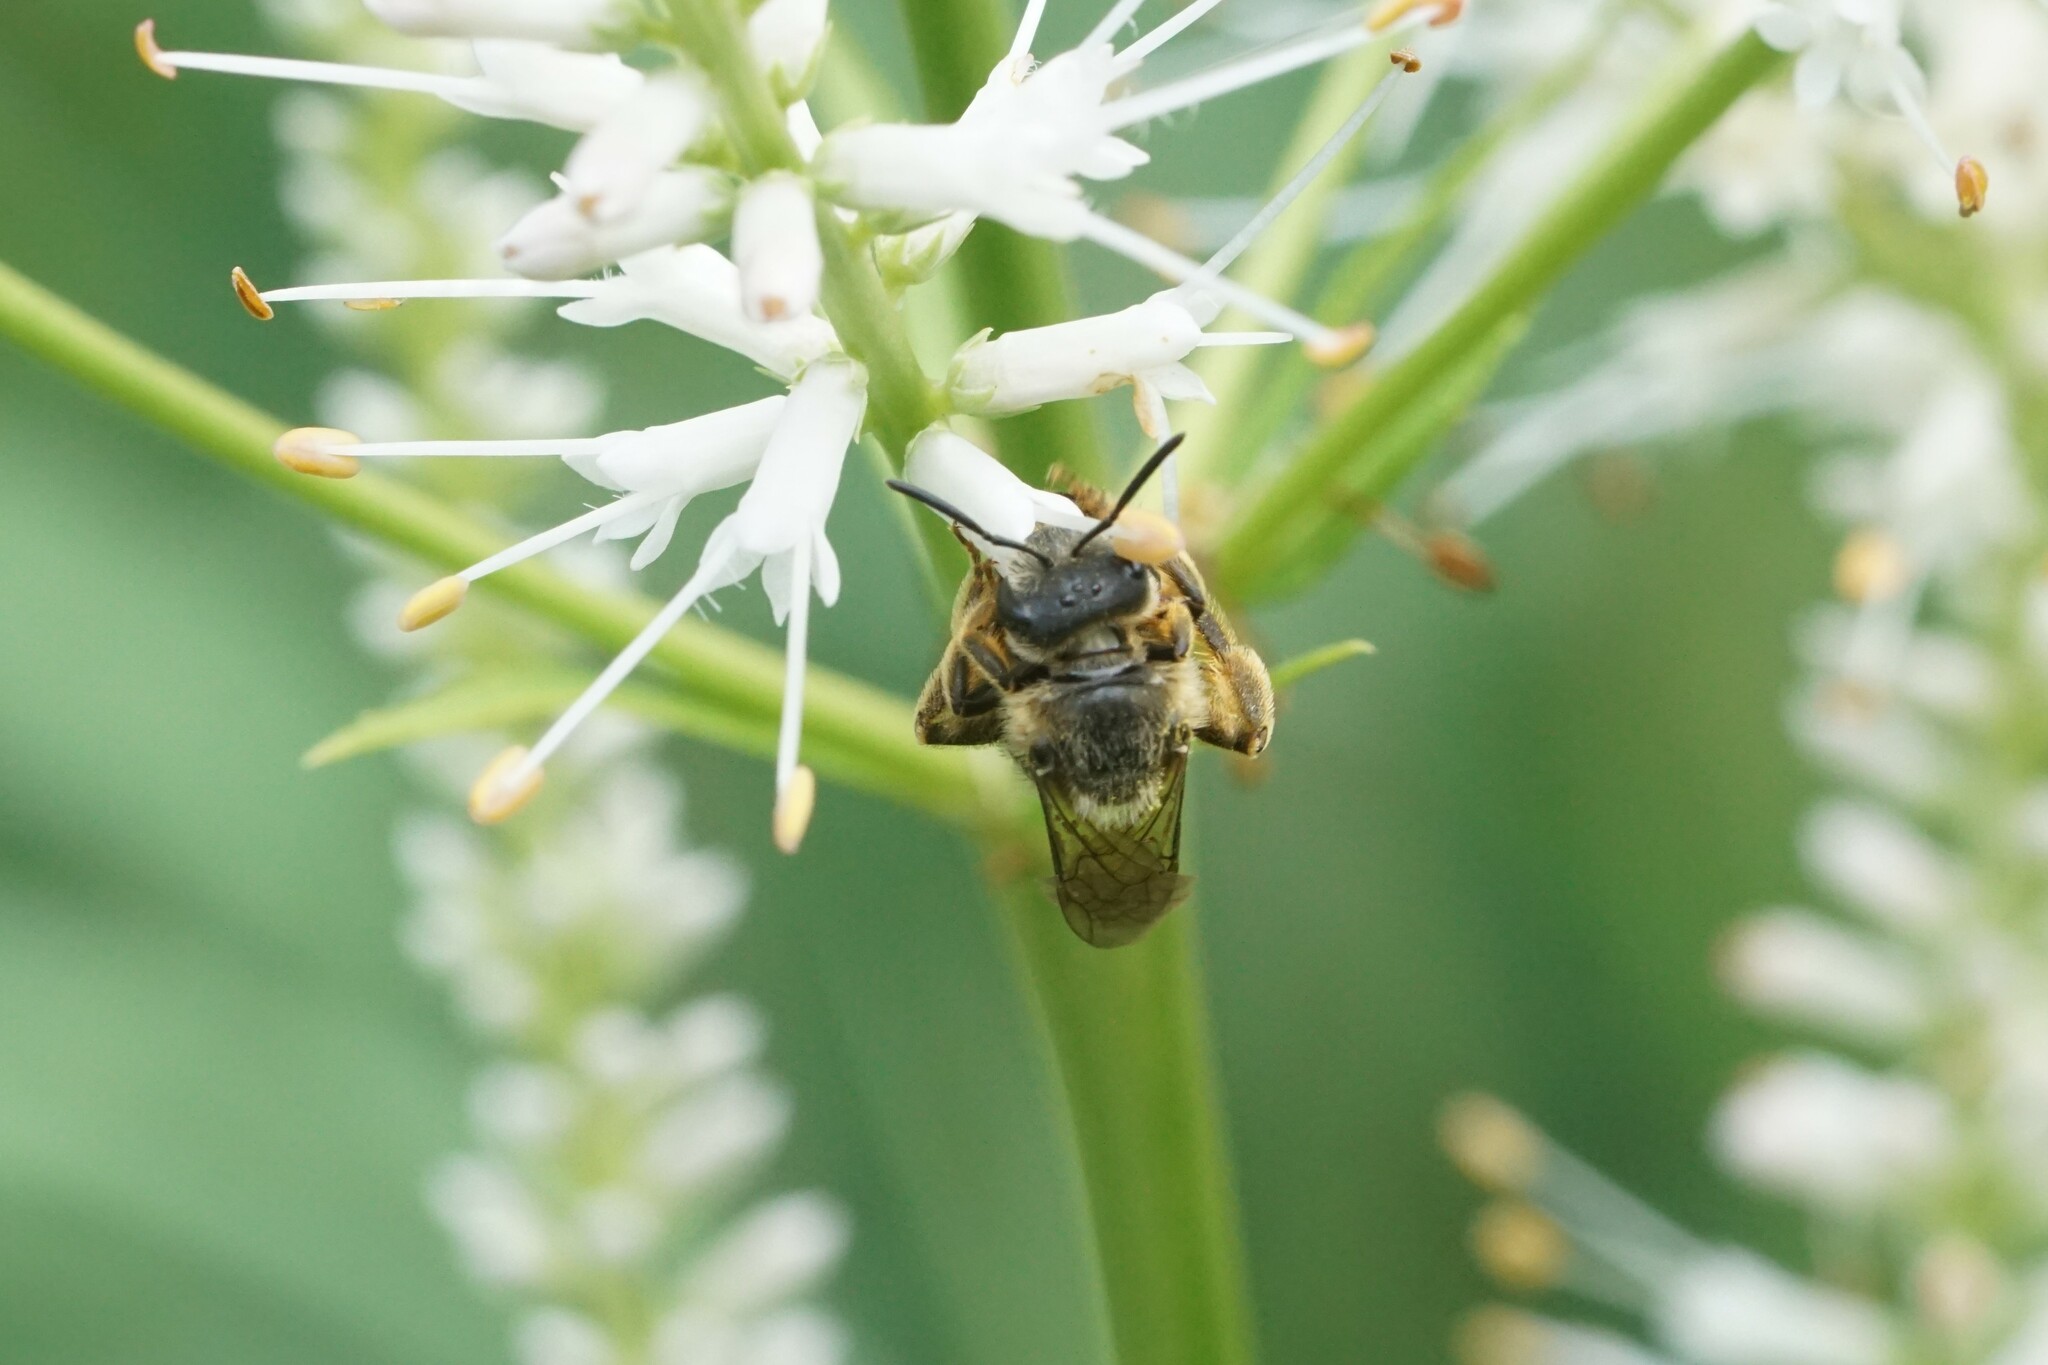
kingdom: Animalia
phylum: Arthropoda
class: Insecta
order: Hymenoptera
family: Halictidae
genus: Halictus
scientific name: Halictus rubicundus
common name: Orange-legged furrow bee
